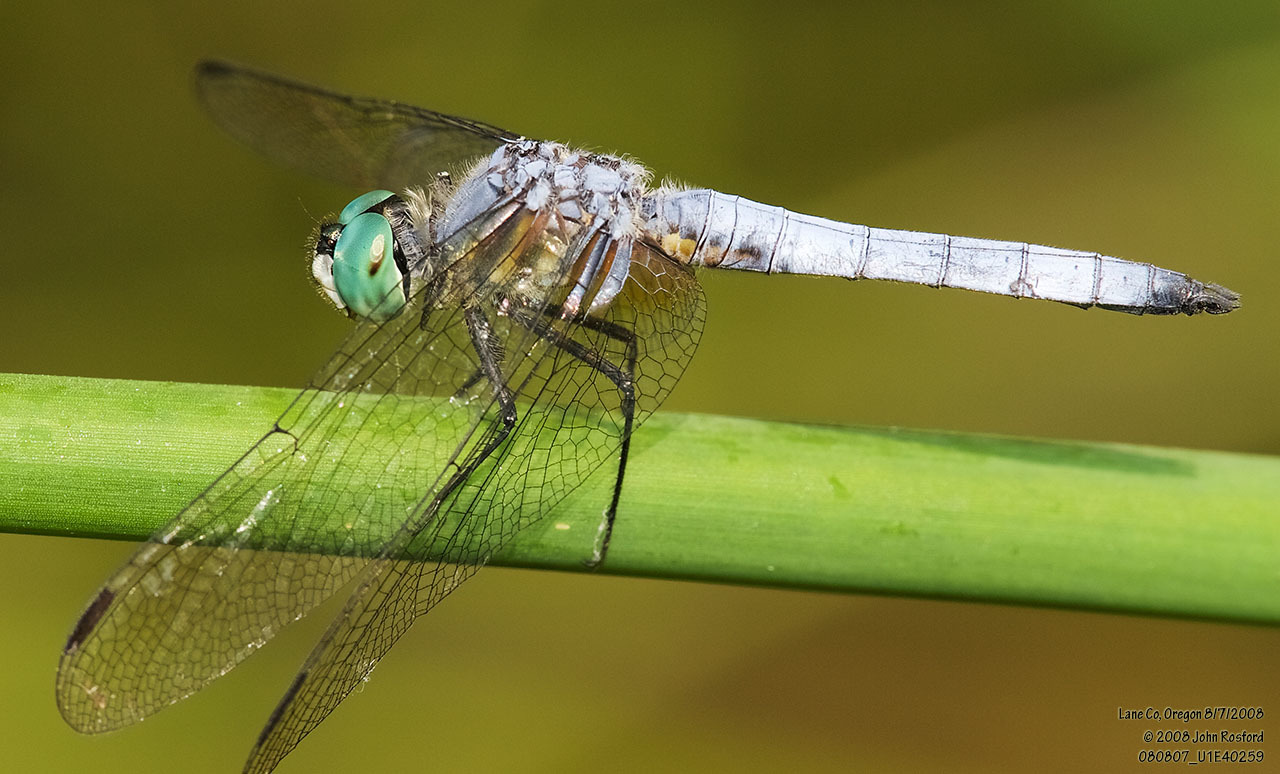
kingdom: Animalia
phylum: Arthropoda
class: Insecta
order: Odonata
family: Libellulidae
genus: Pachydiplax
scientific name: Pachydiplax longipennis
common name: Blue dasher
